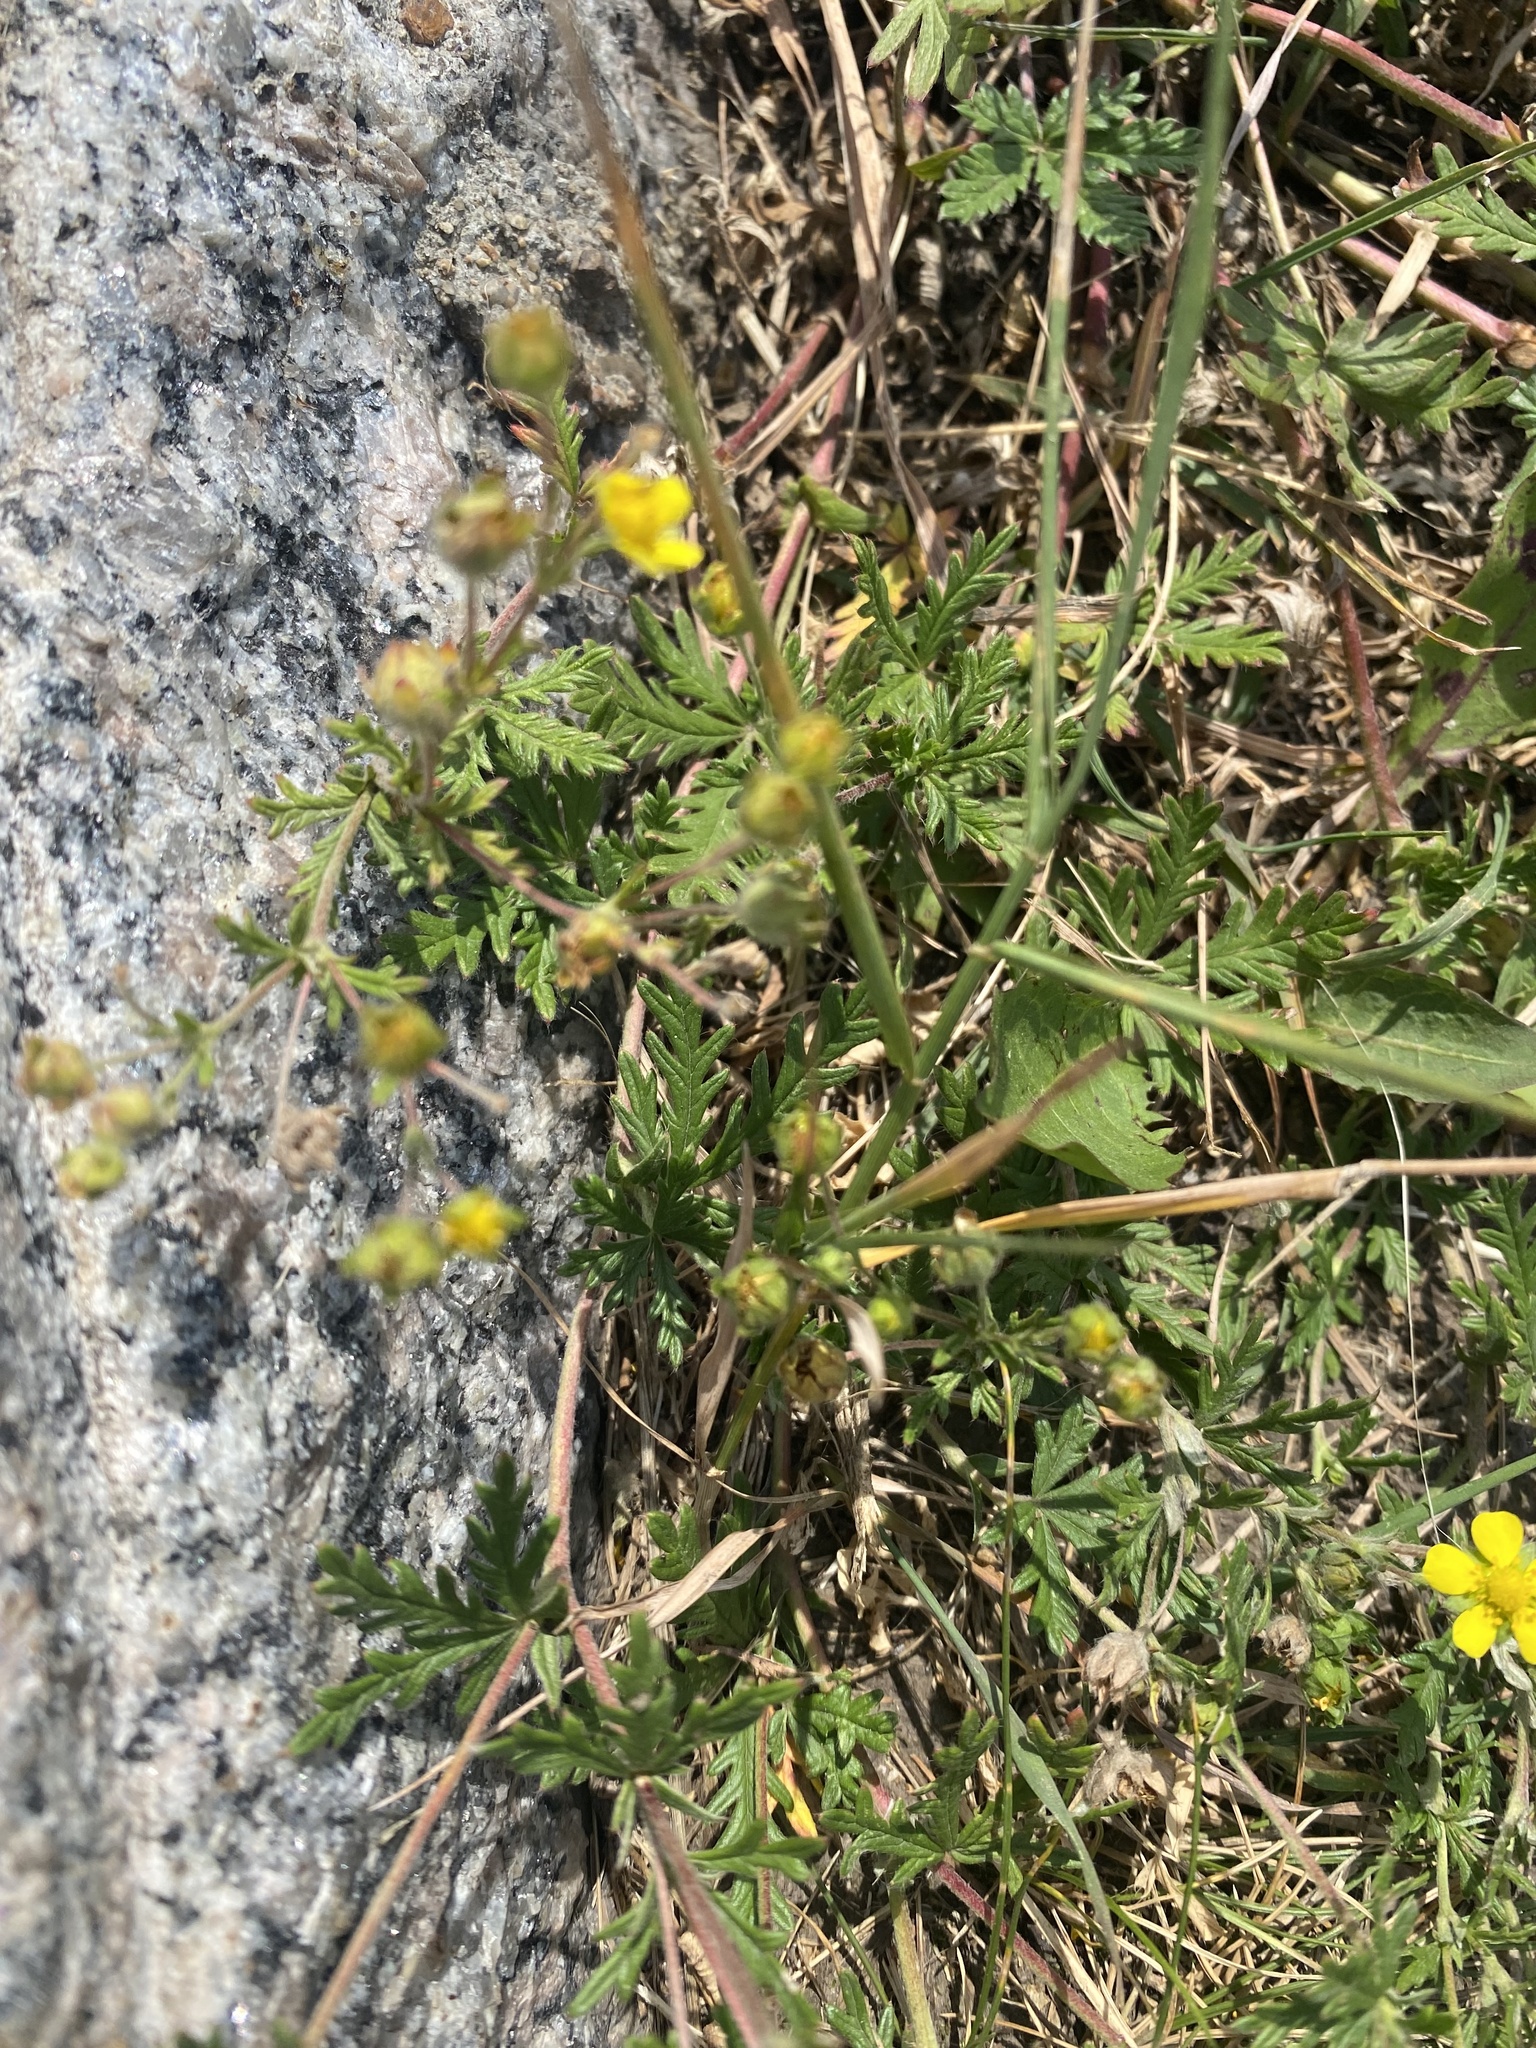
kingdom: Plantae
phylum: Tracheophyta
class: Magnoliopsida
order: Rosales
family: Rosaceae
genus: Potentilla
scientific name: Potentilla argentea
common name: Hoary cinquefoil
